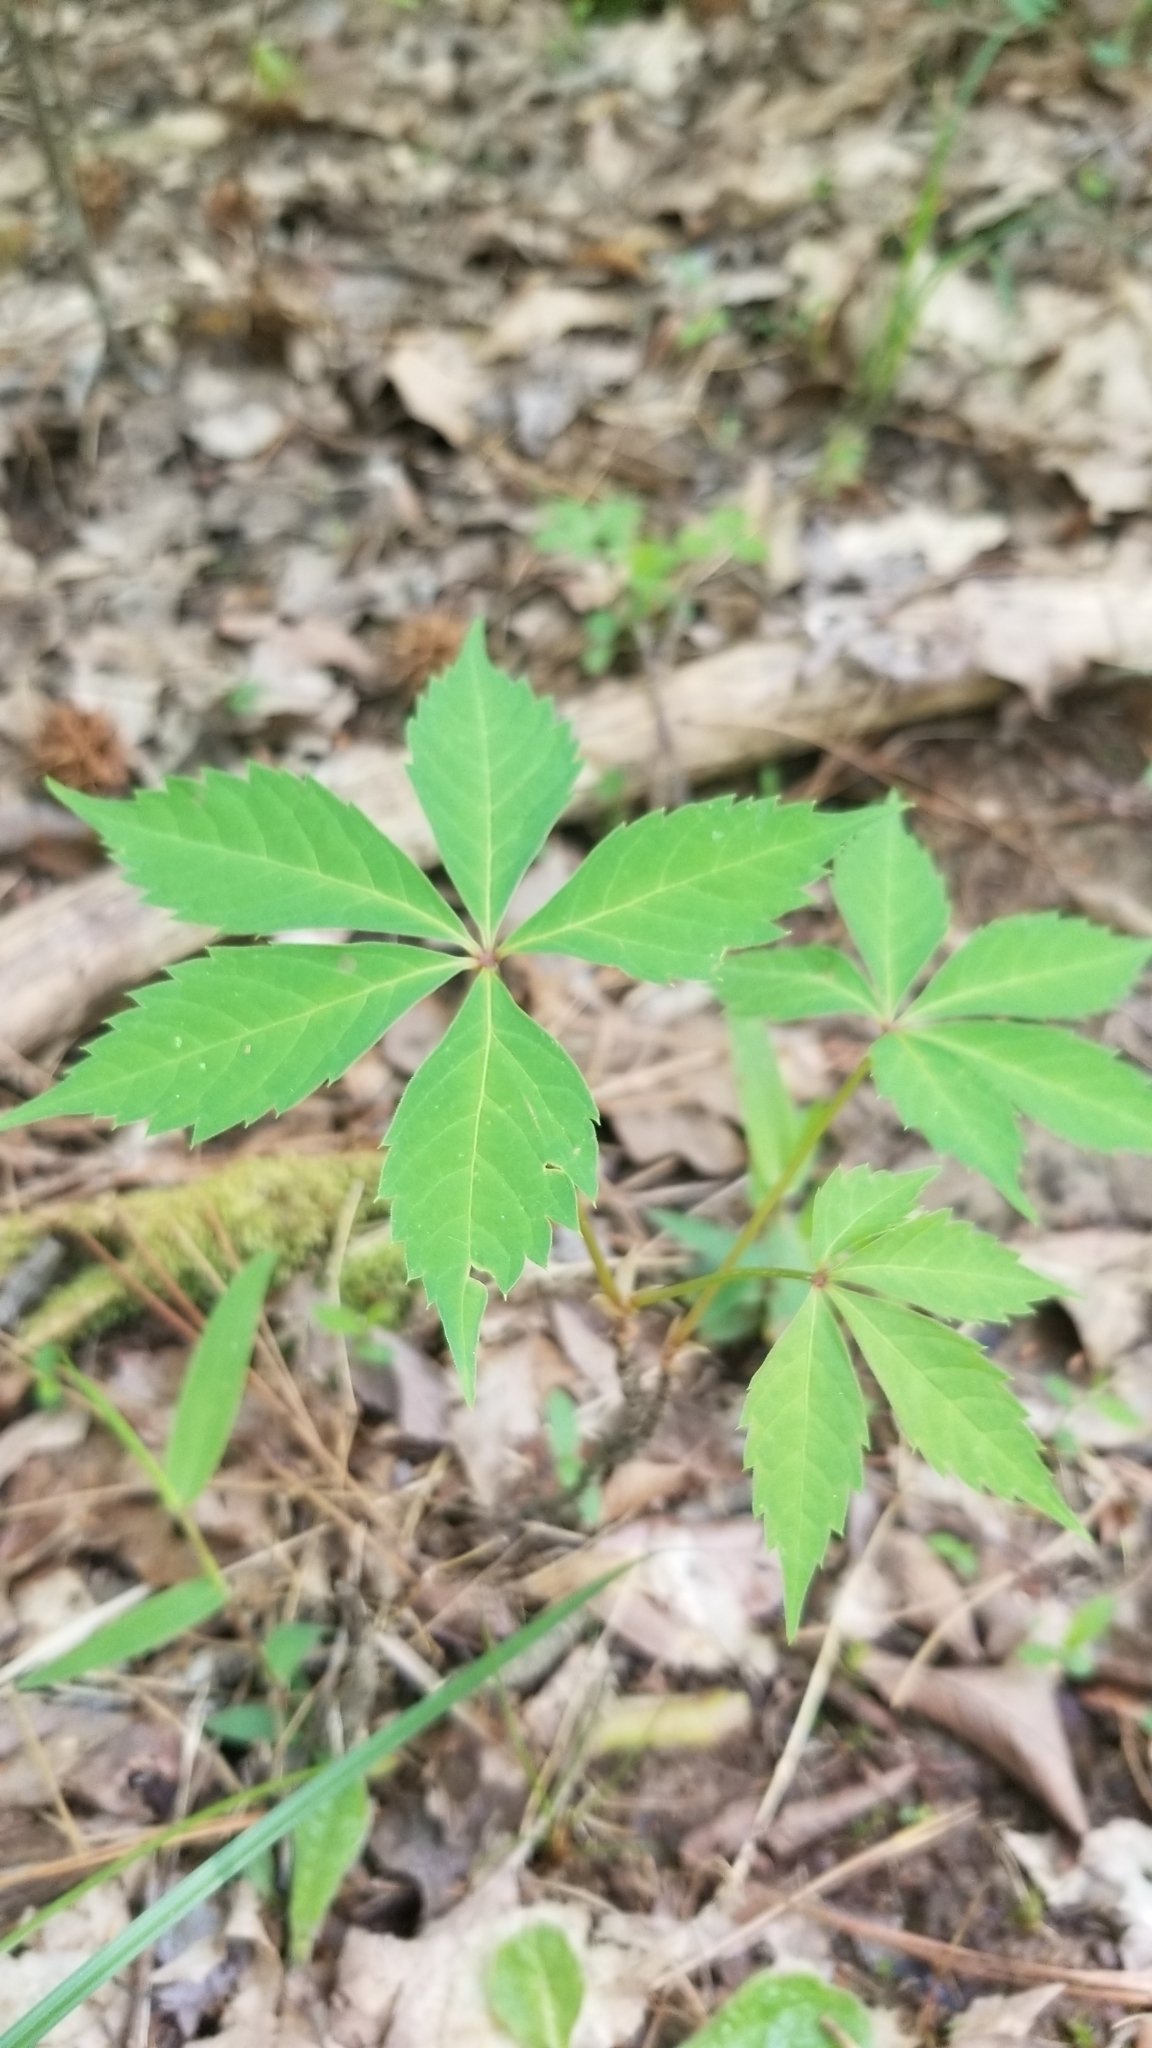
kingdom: Plantae
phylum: Tracheophyta
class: Magnoliopsida
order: Vitales
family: Vitaceae
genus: Parthenocissus
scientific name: Parthenocissus quinquefolia
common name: Virginia-creeper
